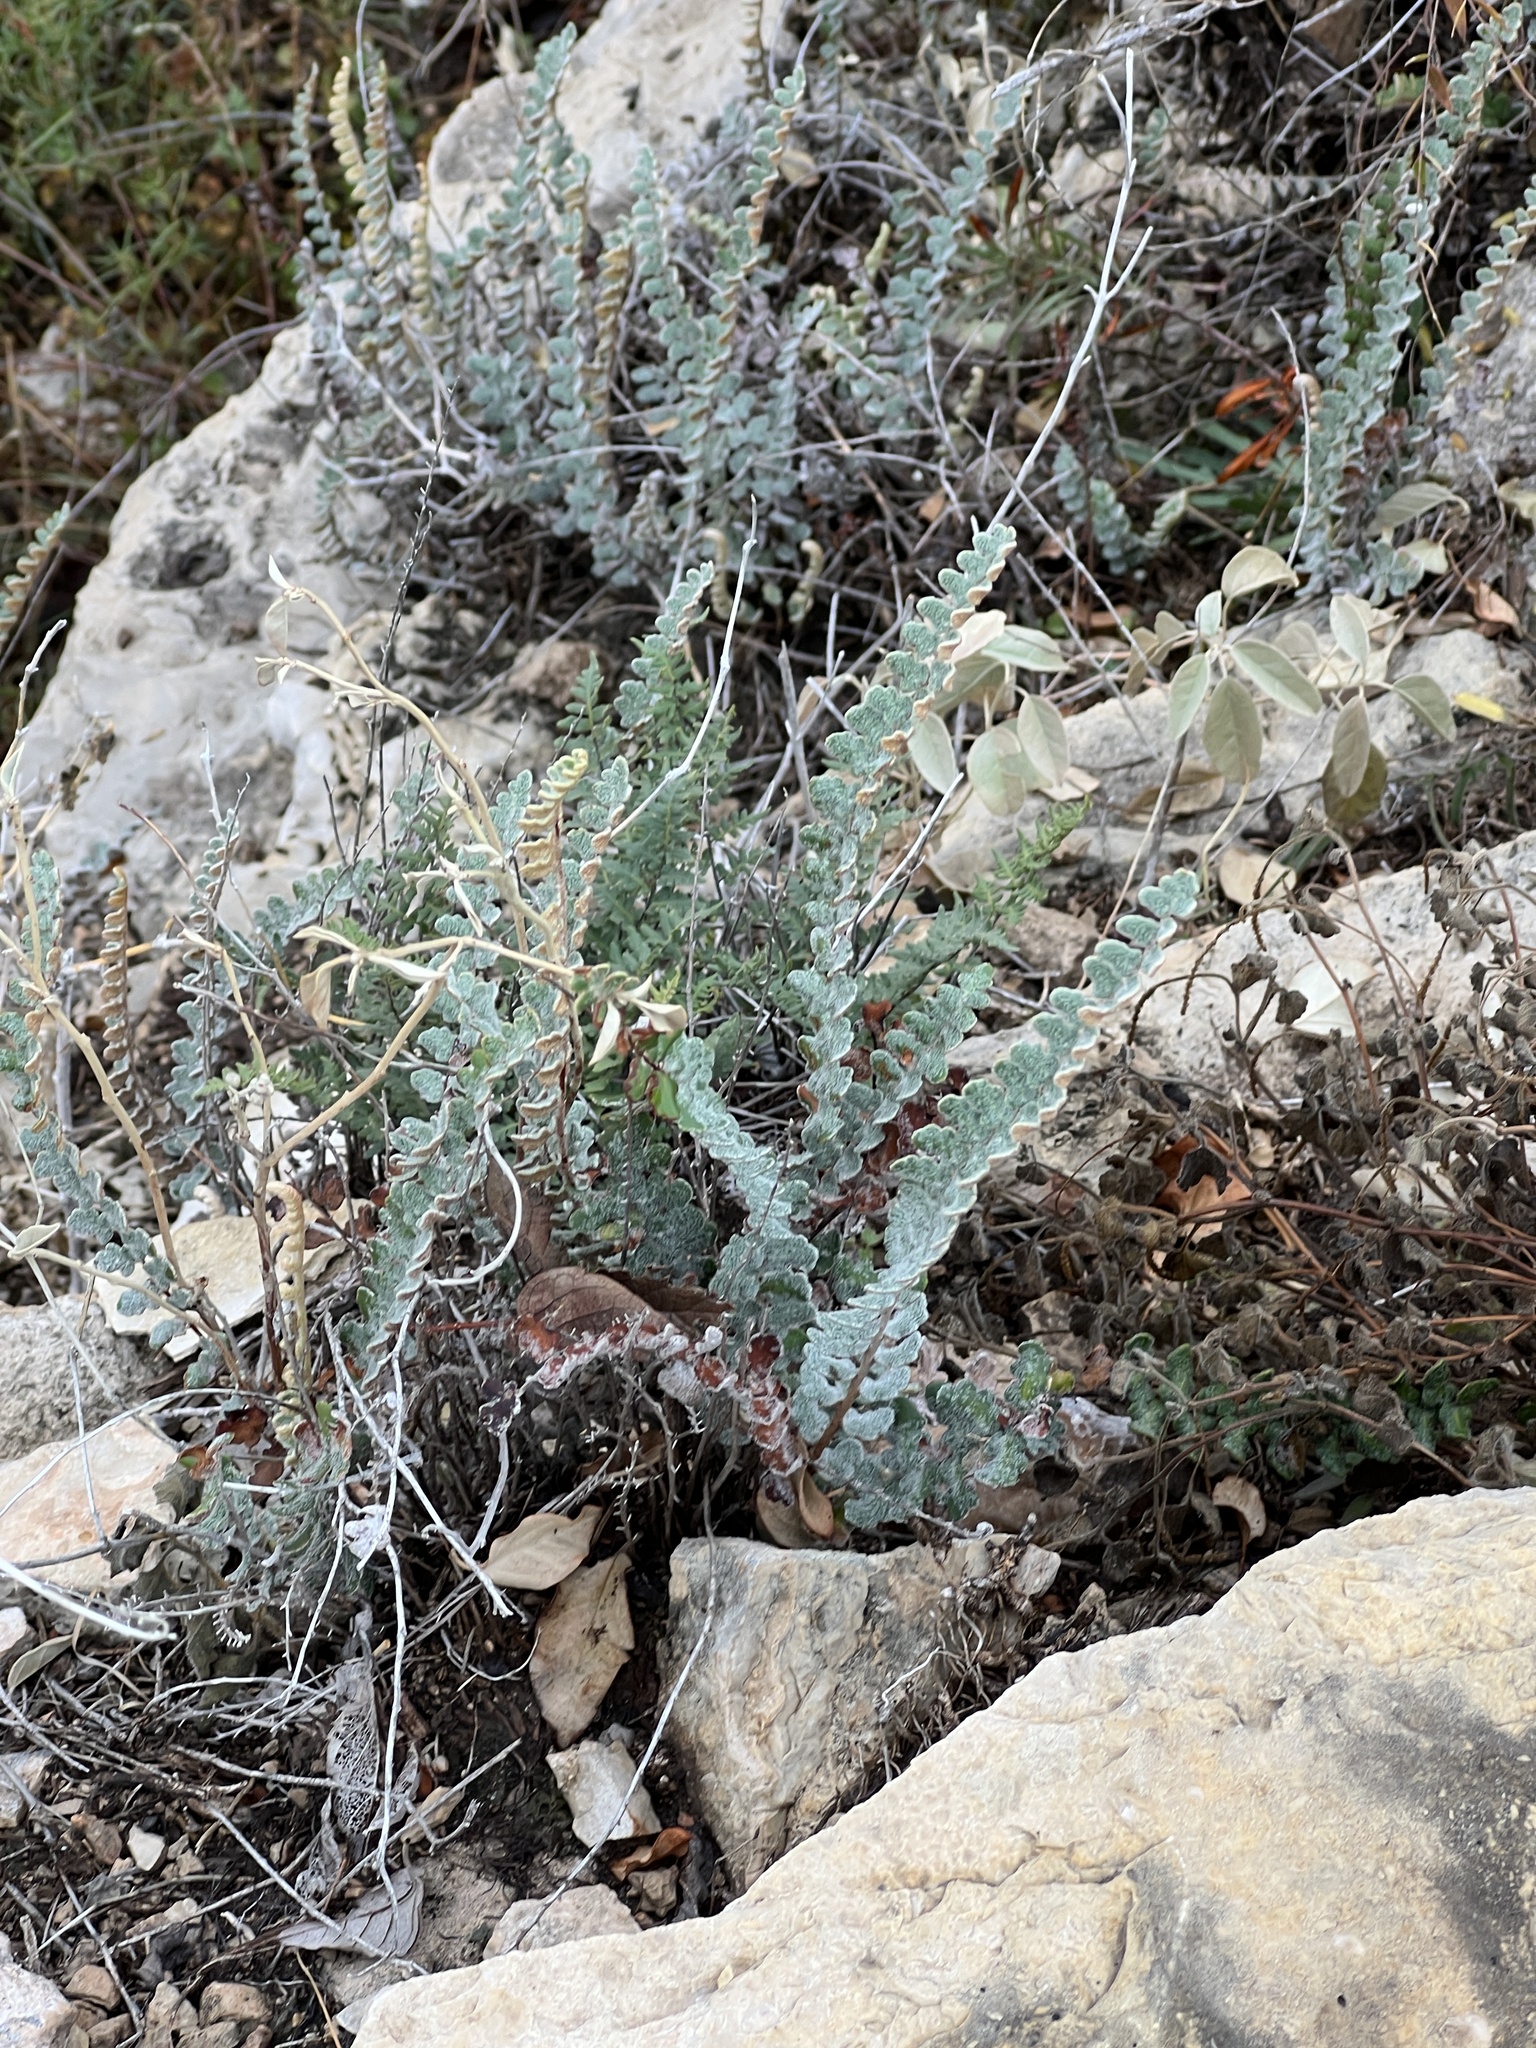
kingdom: Plantae
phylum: Tracheophyta
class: Polypodiopsida
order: Polypodiales
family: Pteridaceae
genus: Astrolepis
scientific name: Astrolepis integerrima
